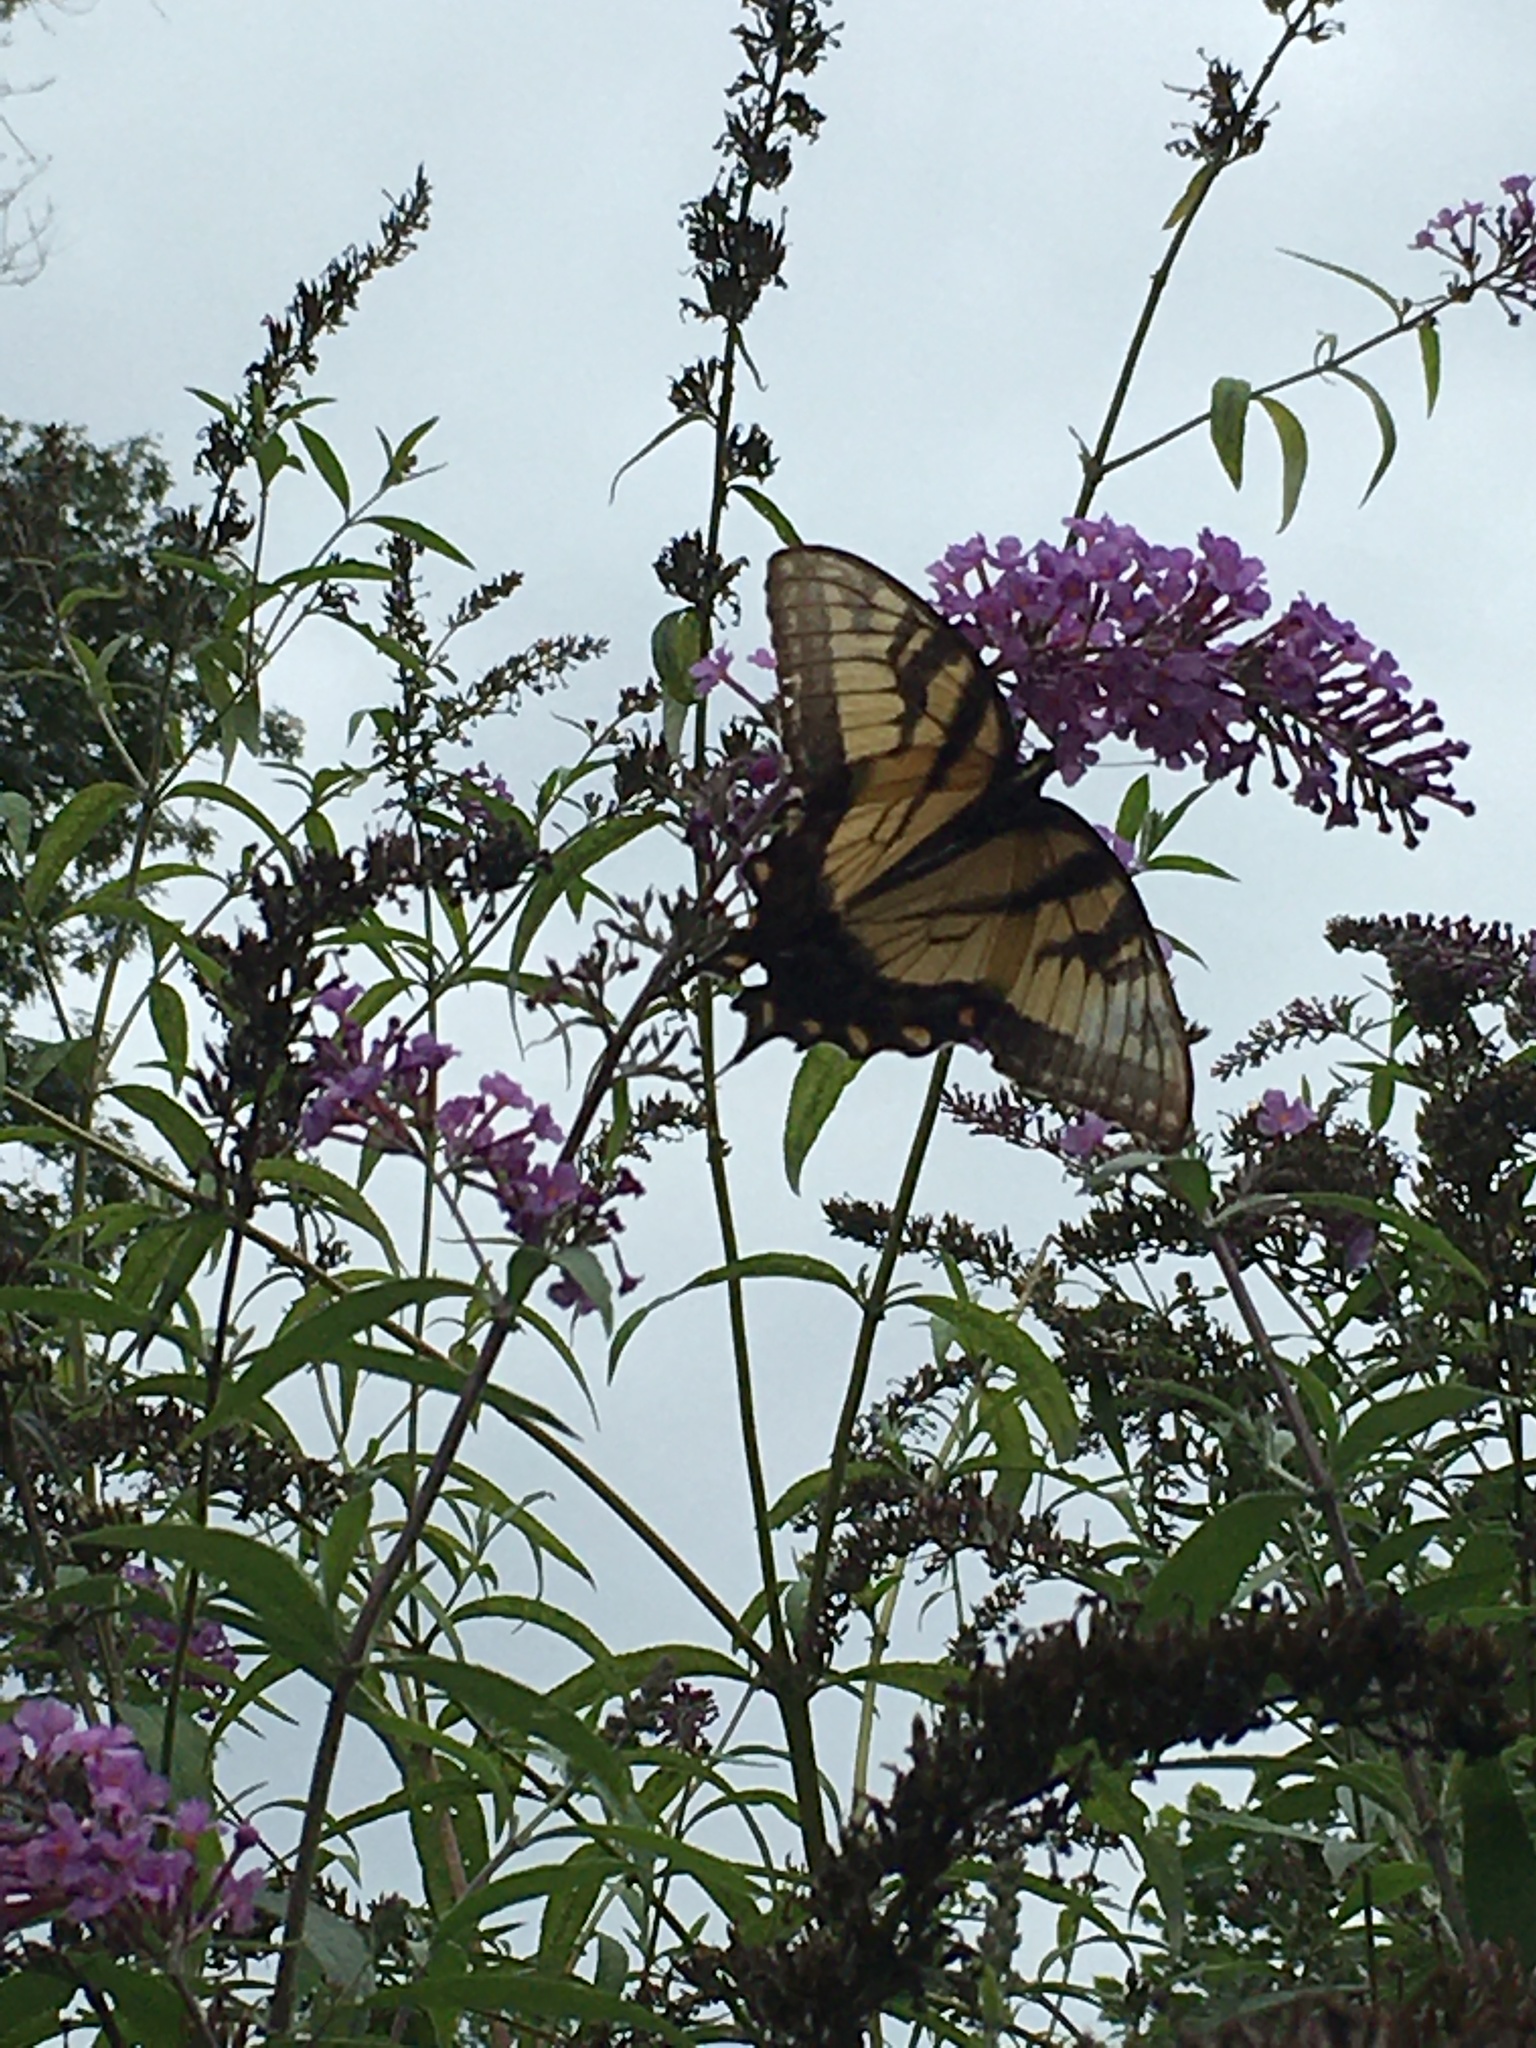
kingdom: Animalia
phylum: Arthropoda
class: Insecta
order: Lepidoptera
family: Papilionidae
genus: Papilio
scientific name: Papilio glaucus
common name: Tiger swallowtail
